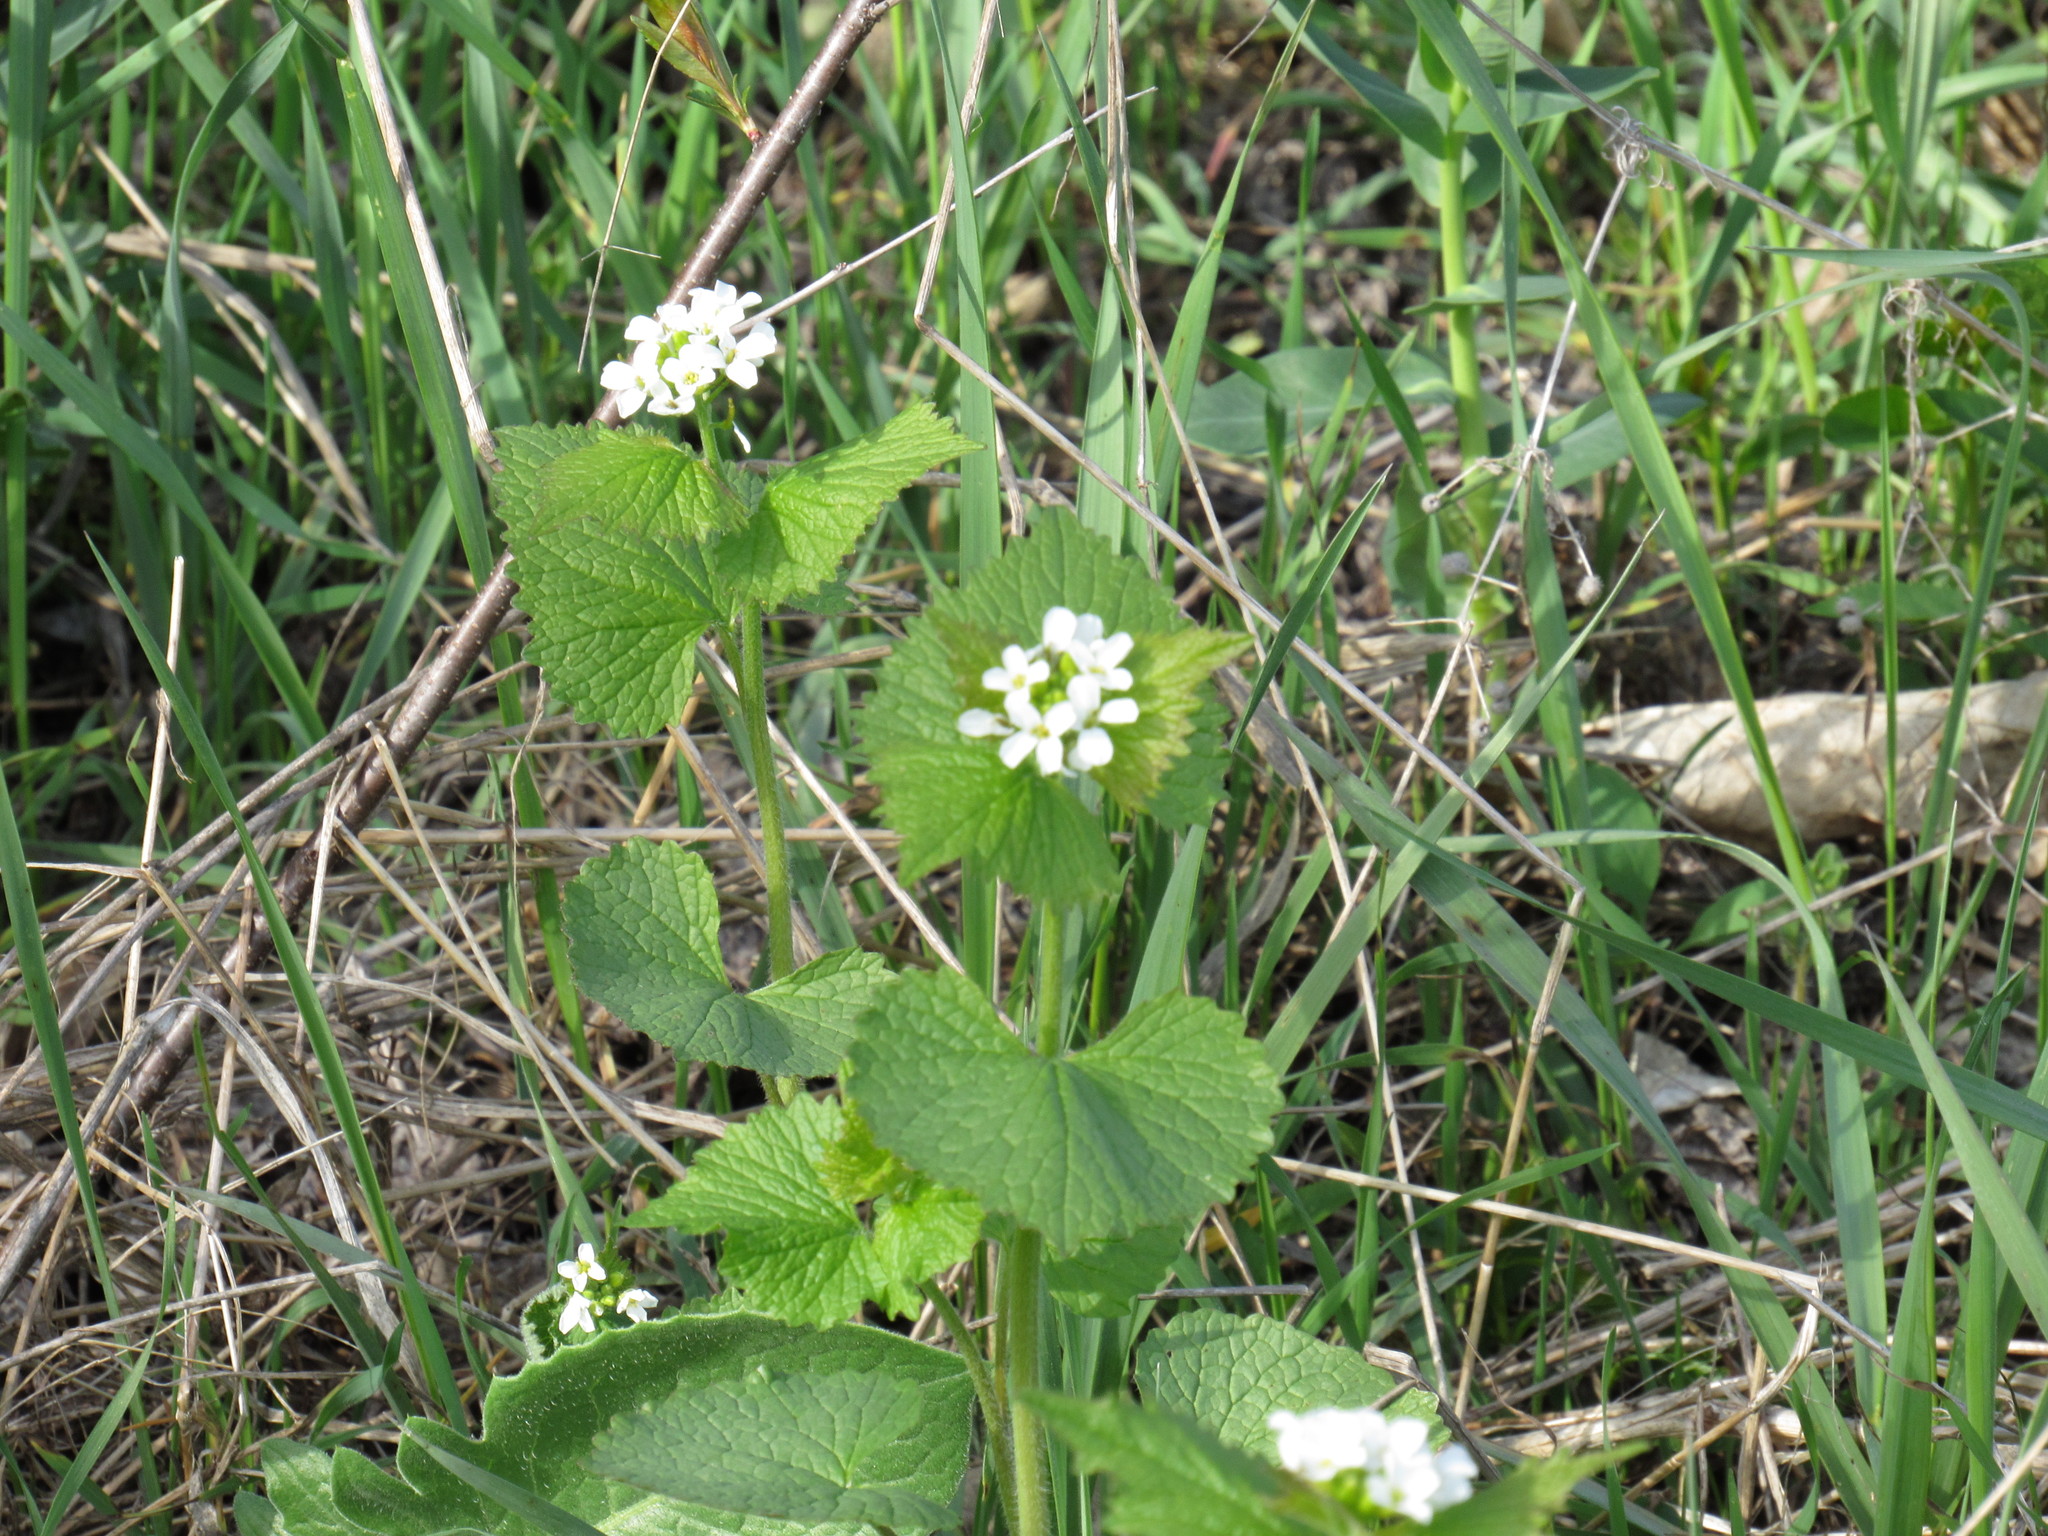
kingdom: Plantae
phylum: Tracheophyta
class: Magnoliopsida
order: Brassicales
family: Brassicaceae
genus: Alliaria
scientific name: Alliaria petiolata
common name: Garlic mustard
